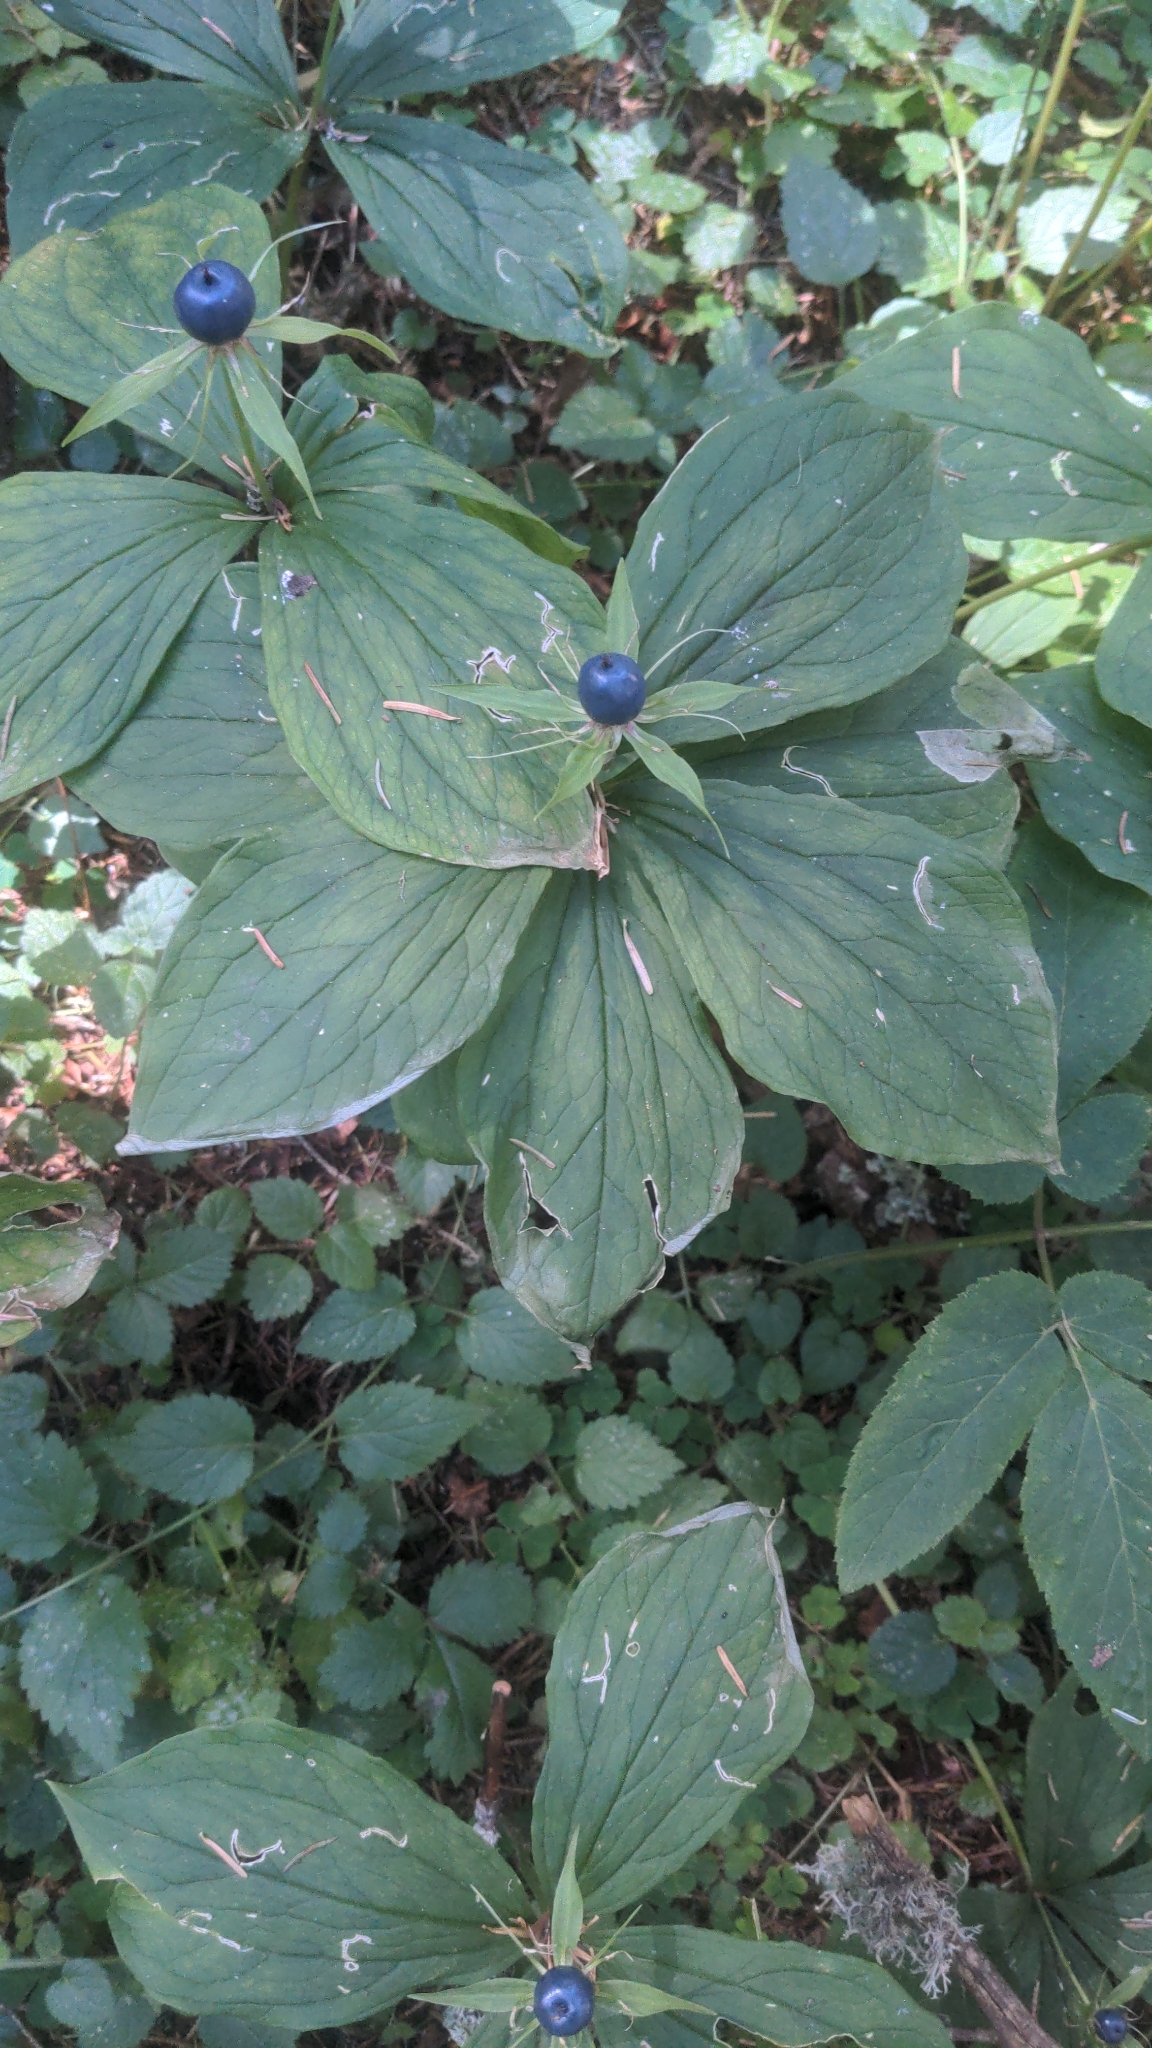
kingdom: Plantae
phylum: Tracheophyta
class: Liliopsida
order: Liliales
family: Melanthiaceae
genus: Paris
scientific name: Paris quadrifolia
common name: Herb-paris
